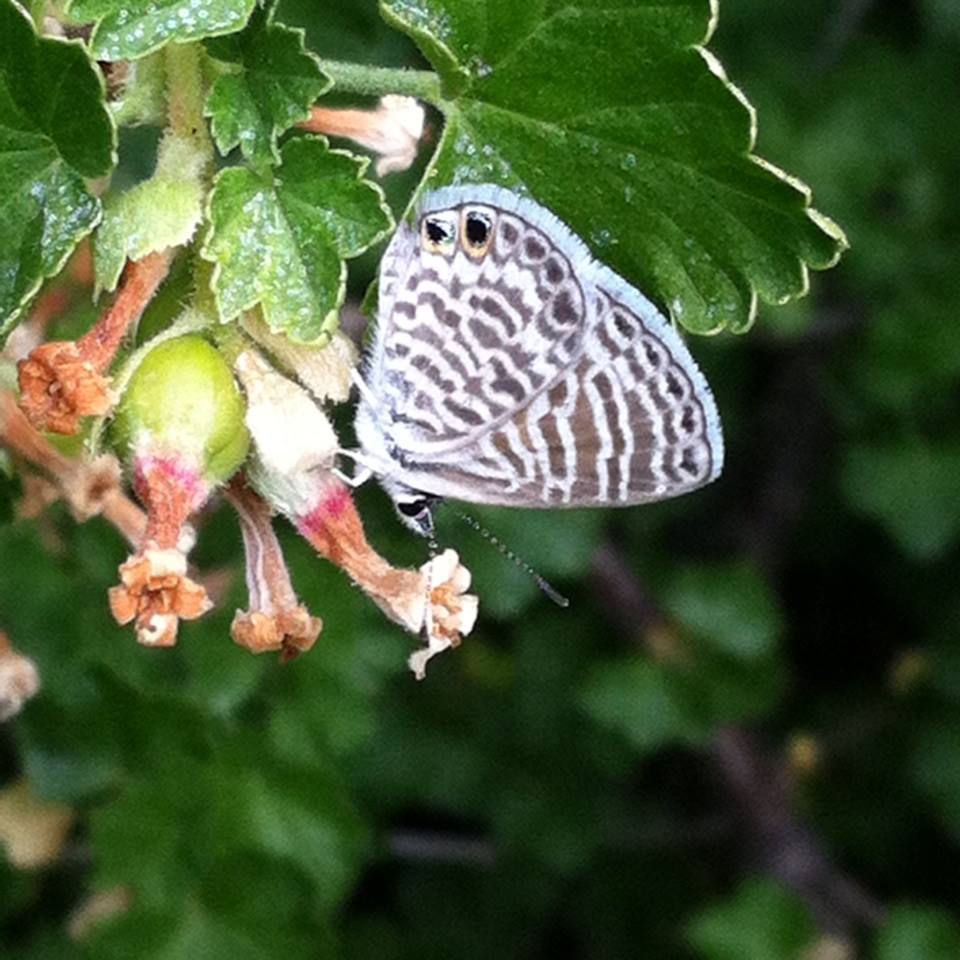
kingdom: Animalia
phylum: Arthropoda
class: Insecta
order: Lepidoptera
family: Lycaenidae
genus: Leptotes
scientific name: Leptotes marina
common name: Marine blue
